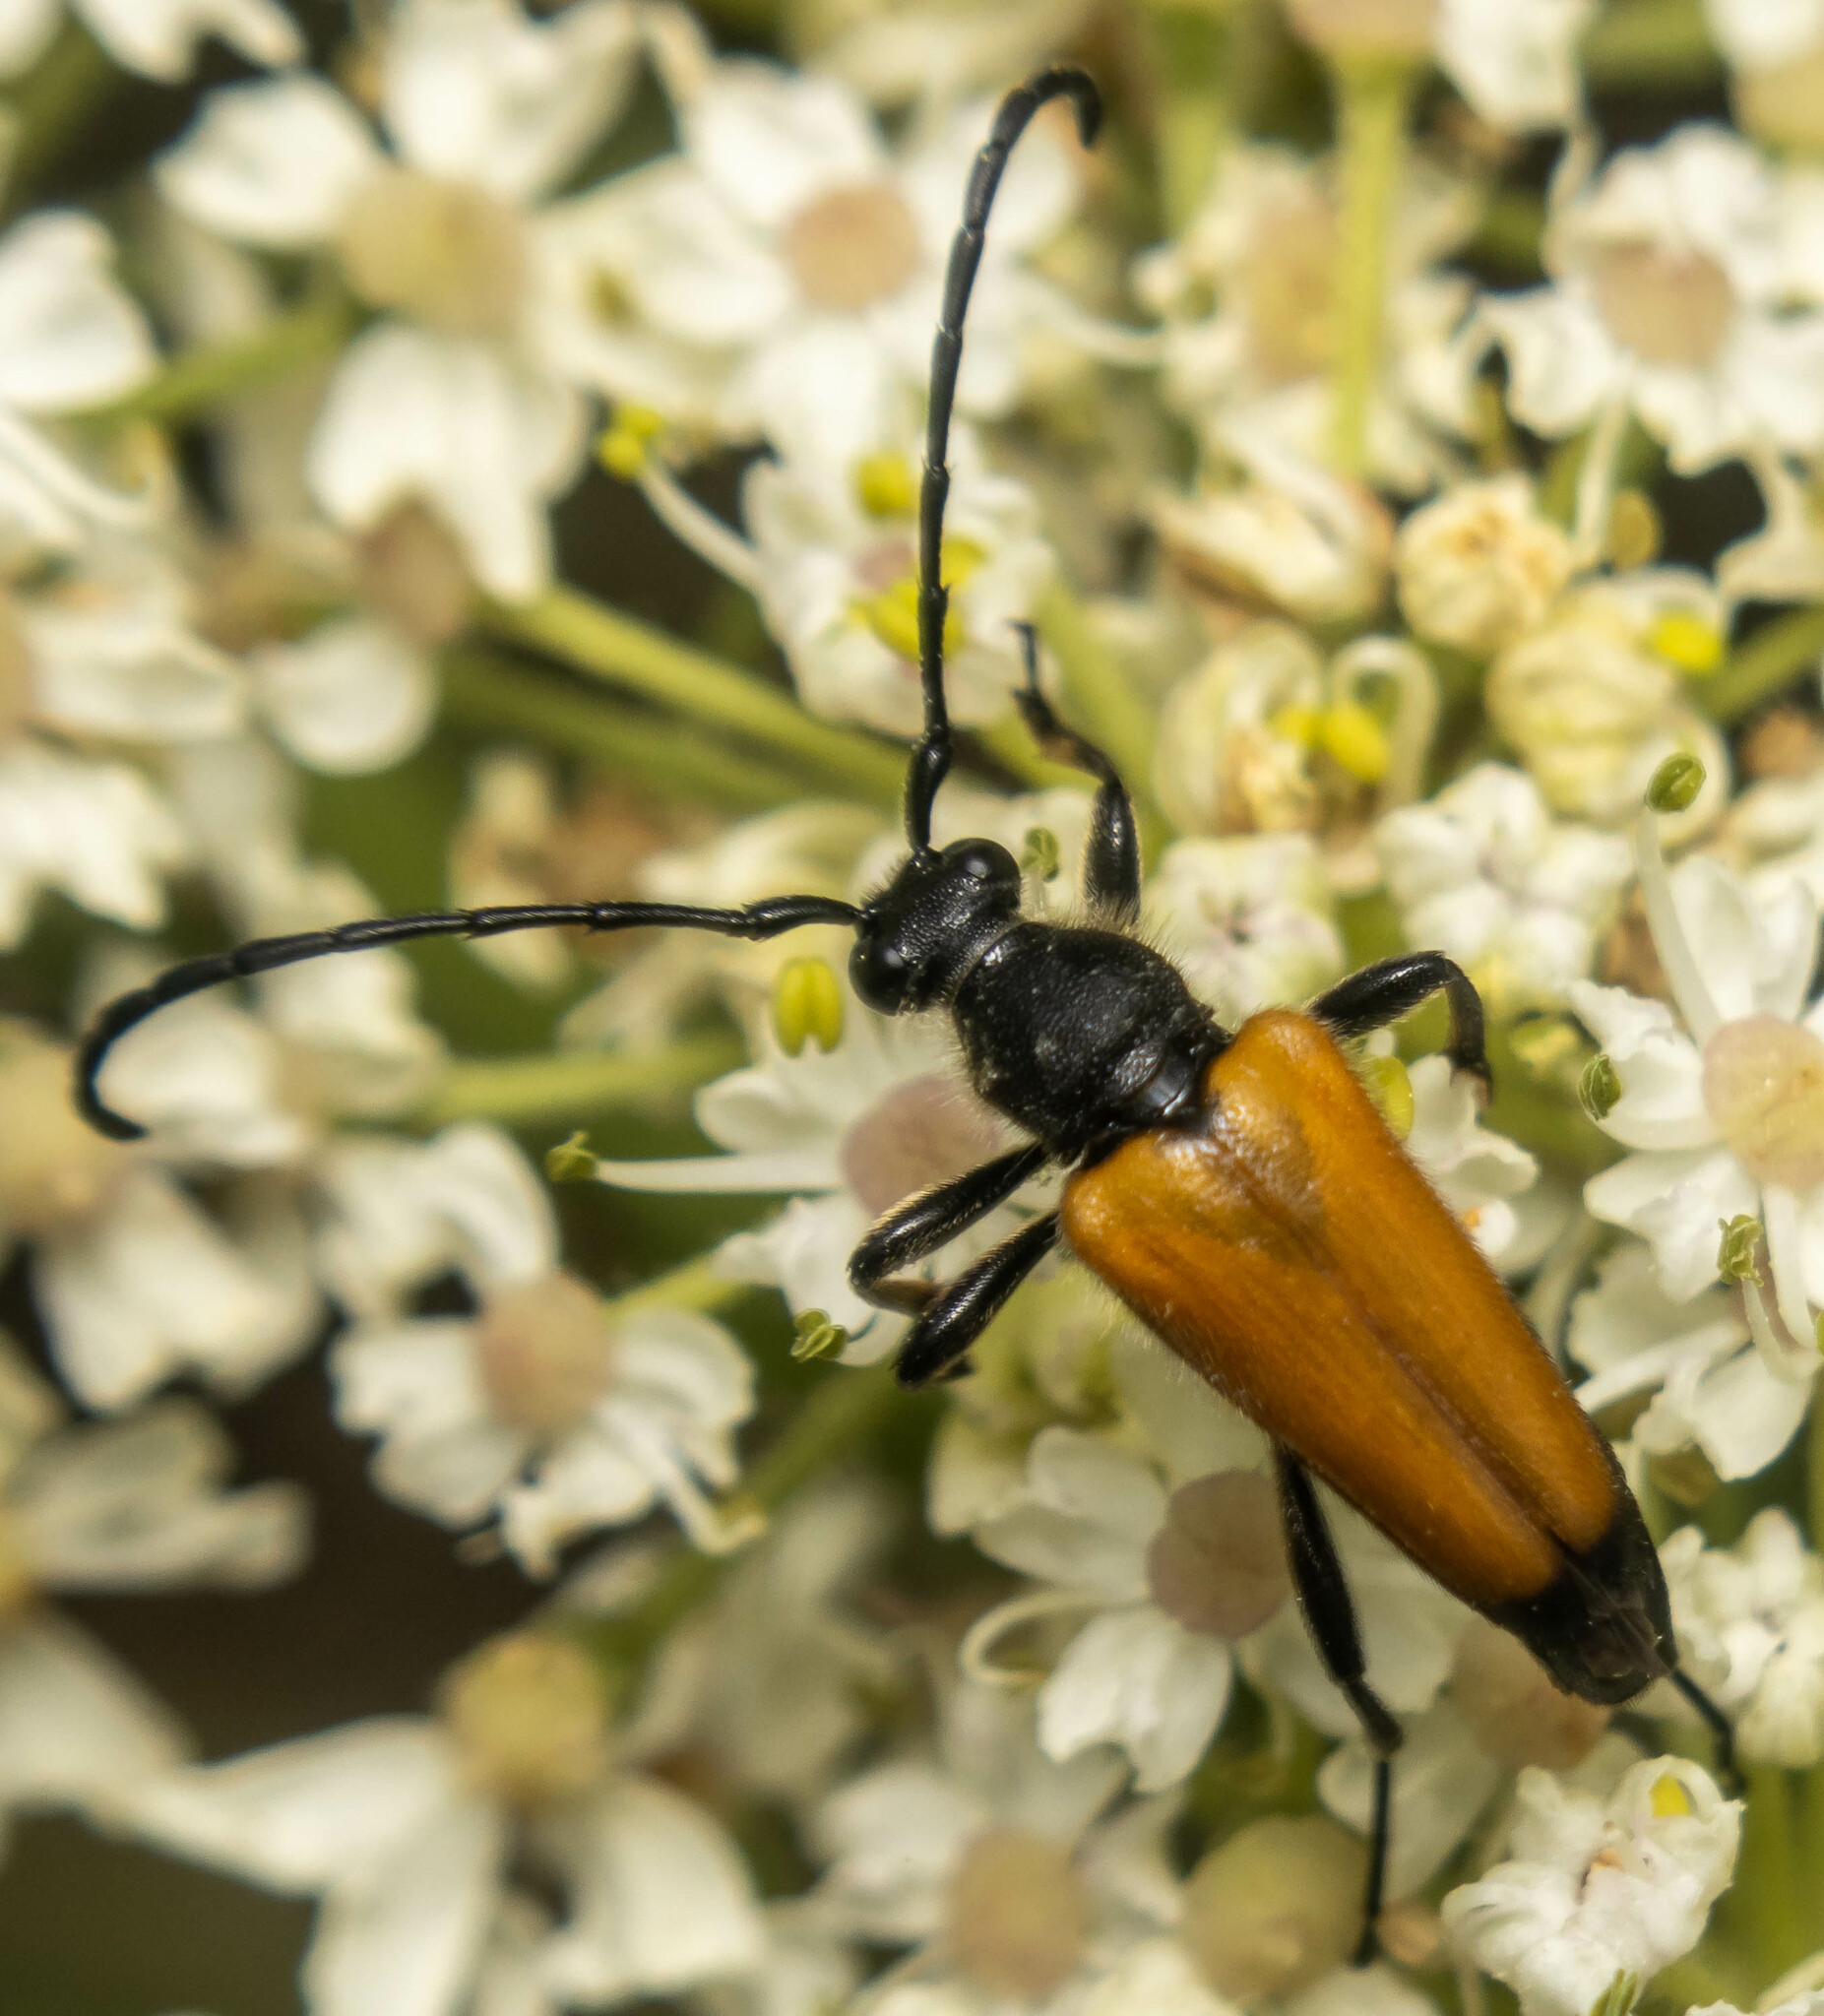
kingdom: Animalia
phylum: Arthropoda
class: Insecta
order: Coleoptera
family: Cerambycidae
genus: Paracorymbia
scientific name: Paracorymbia fulva
